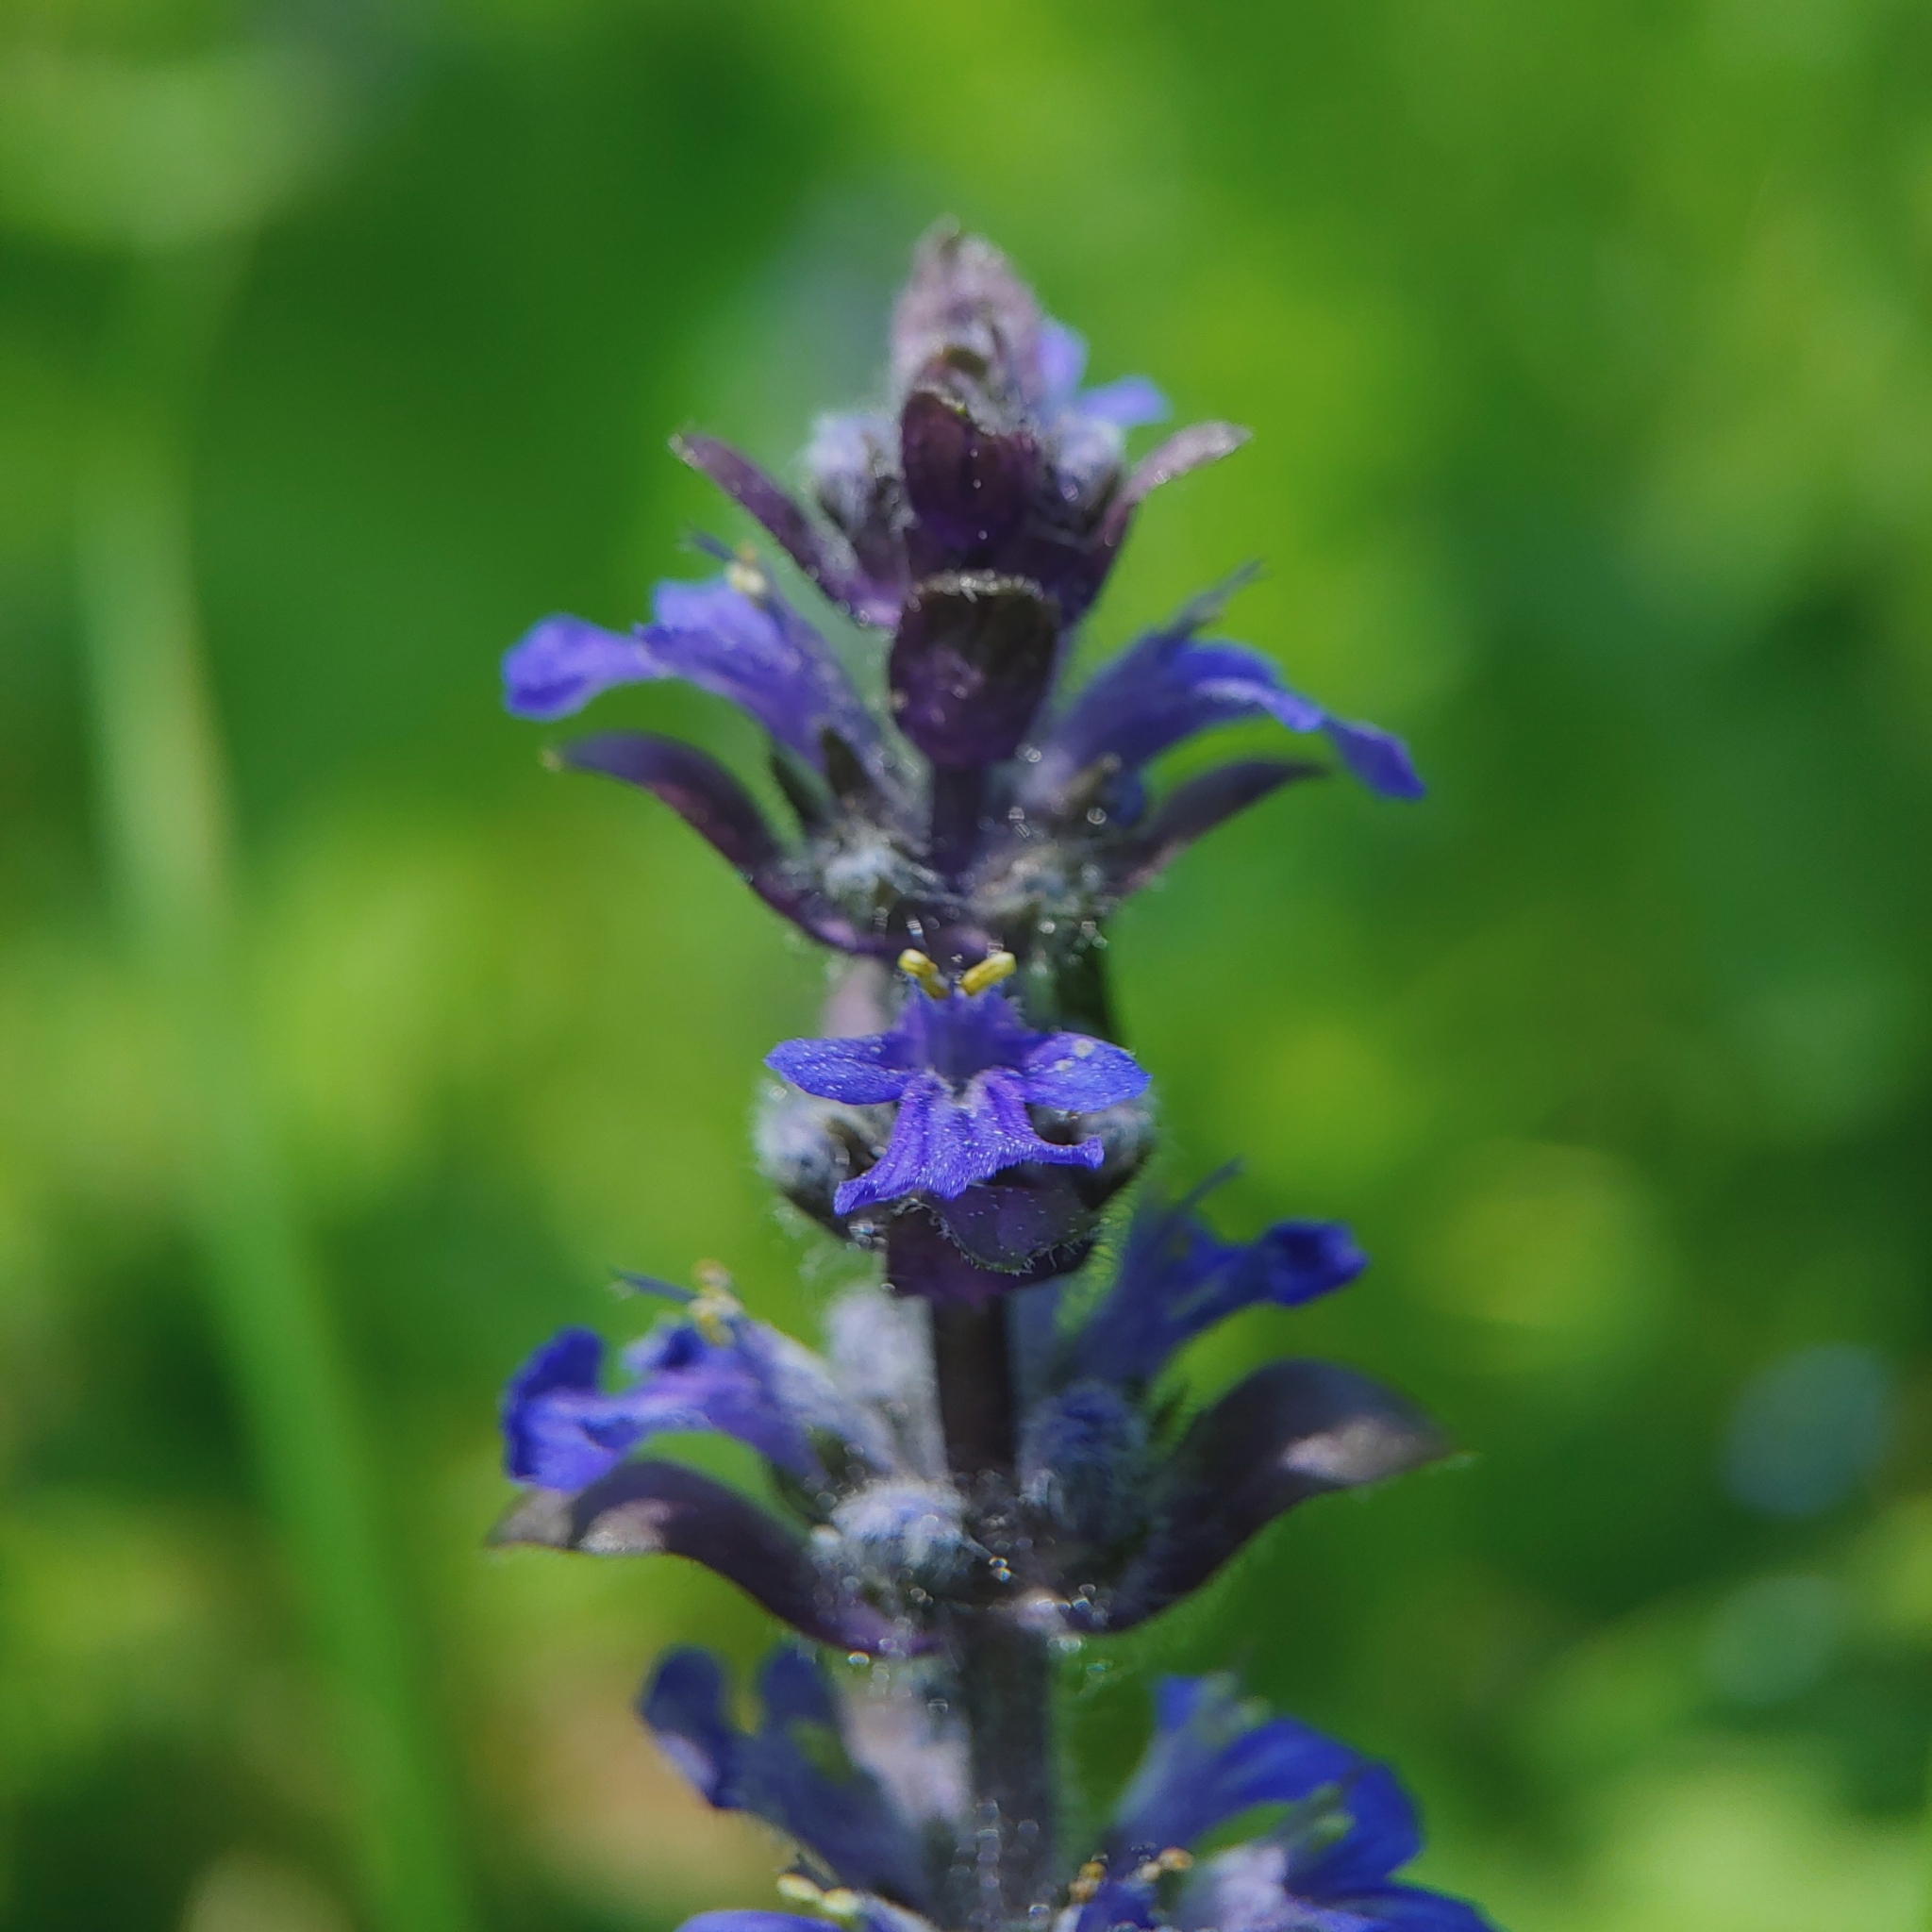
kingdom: Plantae
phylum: Tracheophyta
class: Magnoliopsida
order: Lamiales
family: Lamiaceae
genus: Ajuga
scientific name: Ajuga reptans
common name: Bugle
